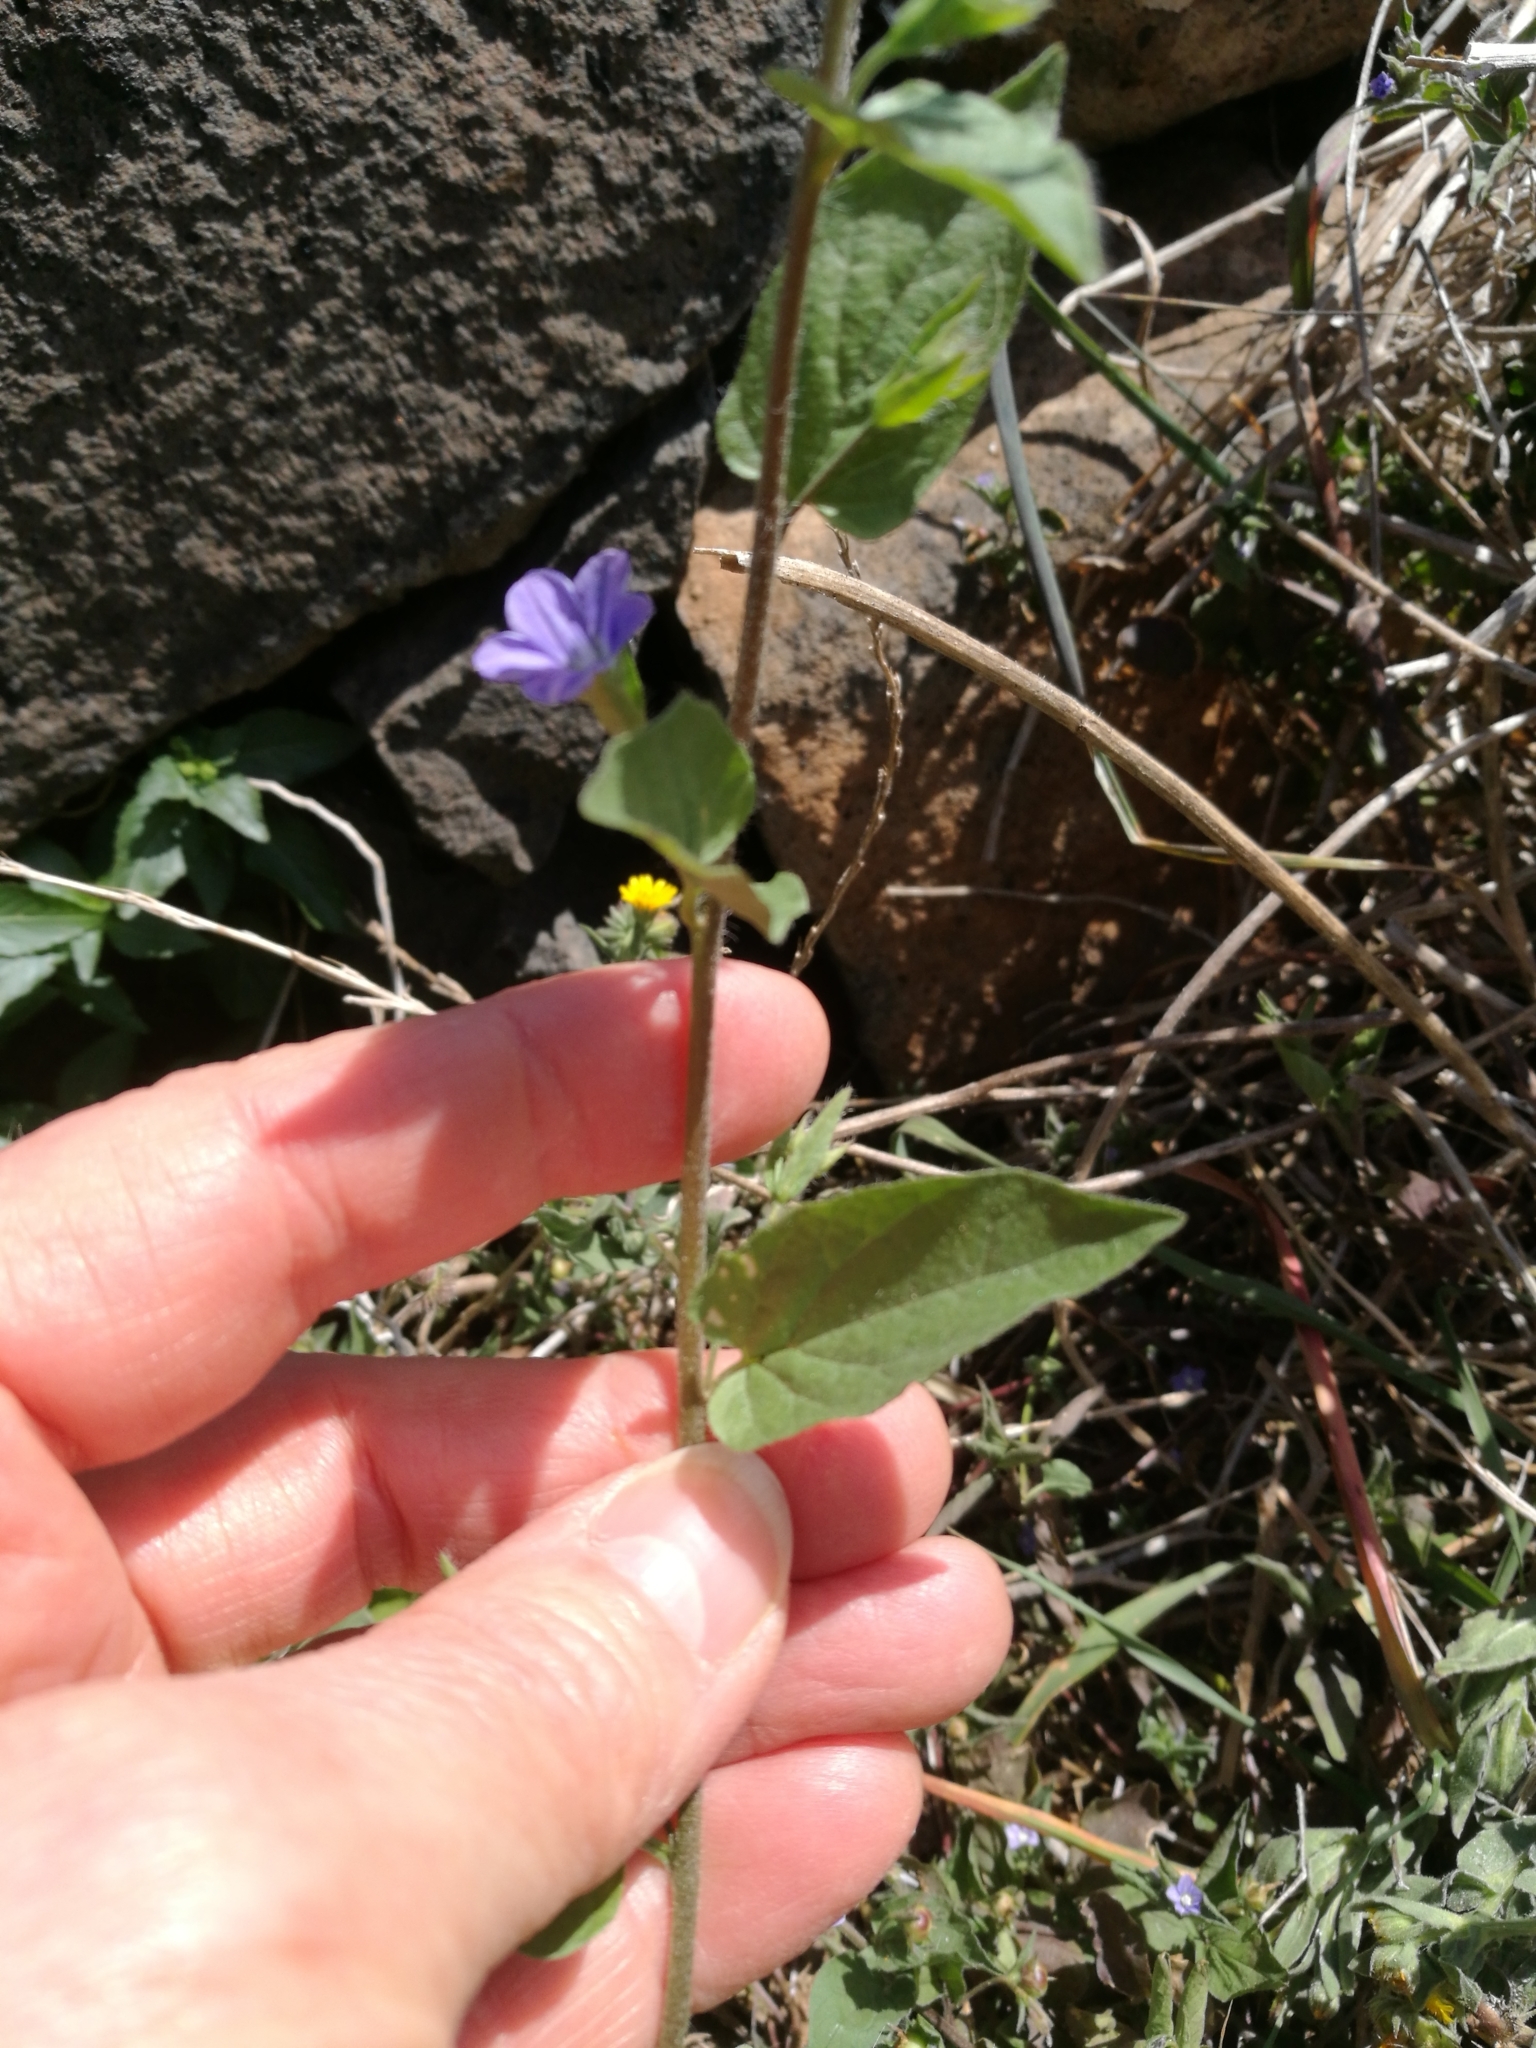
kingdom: Plantae
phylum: Tracheophyta
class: Magnoliopsida
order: Solanales
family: Convolvulaceae
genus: Convolvulus
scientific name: Convolvulus siculus
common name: Small blue-convolvulus
